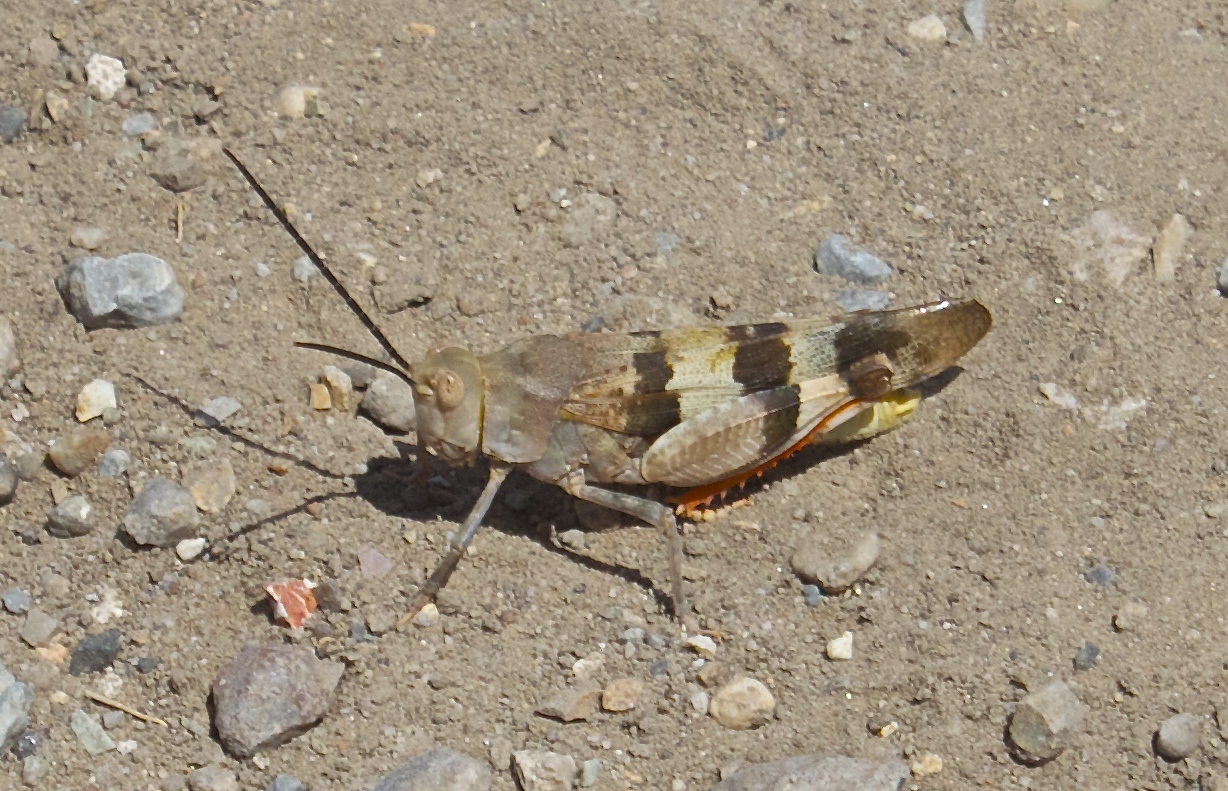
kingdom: Animalia
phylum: Arthropoda
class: Insecta
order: Orthoptera
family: Acrididae
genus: Hadrotettix
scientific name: Hadrotettix trifasciatus
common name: Threebanded grasshopper
